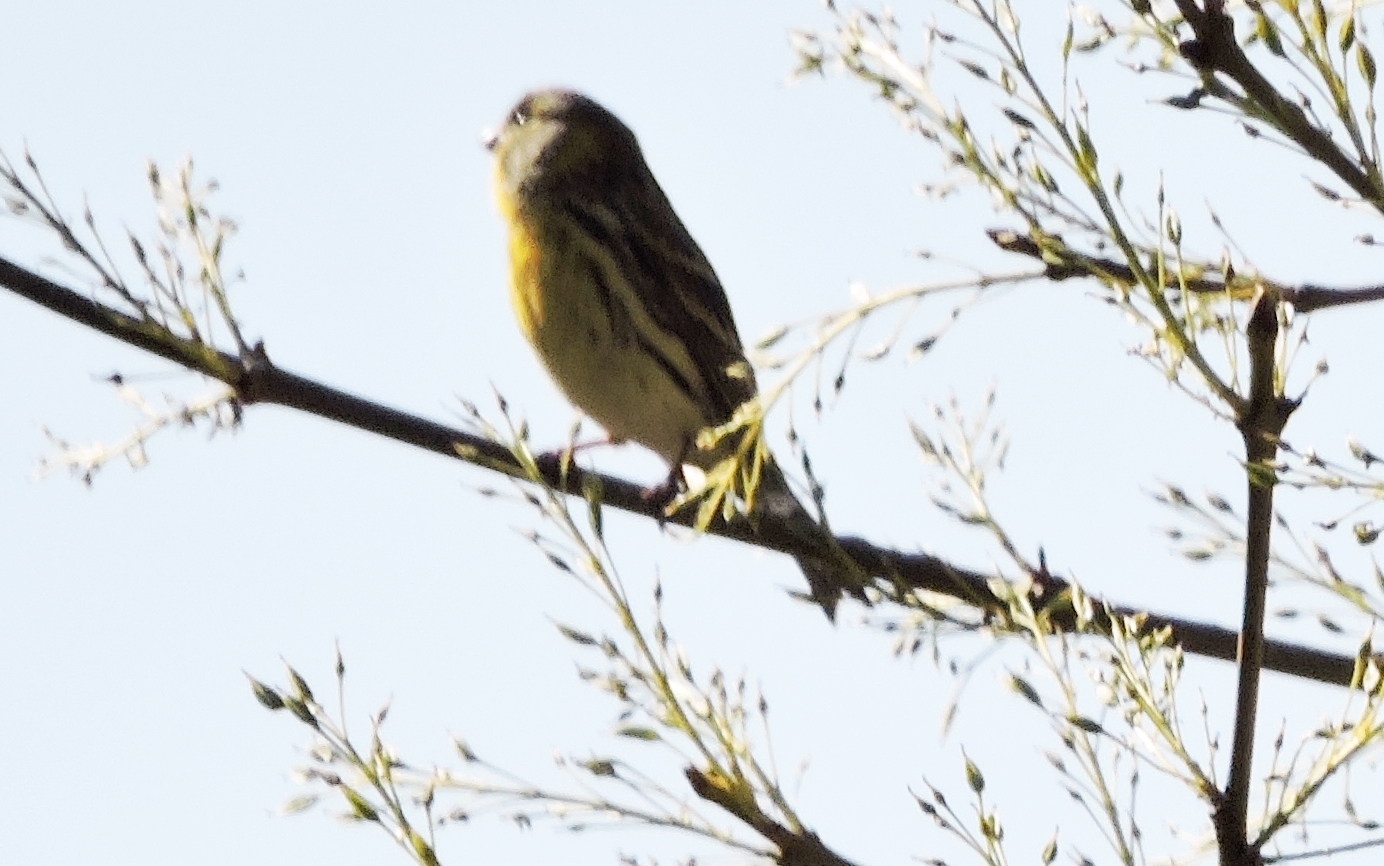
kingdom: Animalia
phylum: Chordata
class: Aves
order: Passeriformes
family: Fringillidae
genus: Serinus
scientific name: Serinus serinus
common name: European serin
